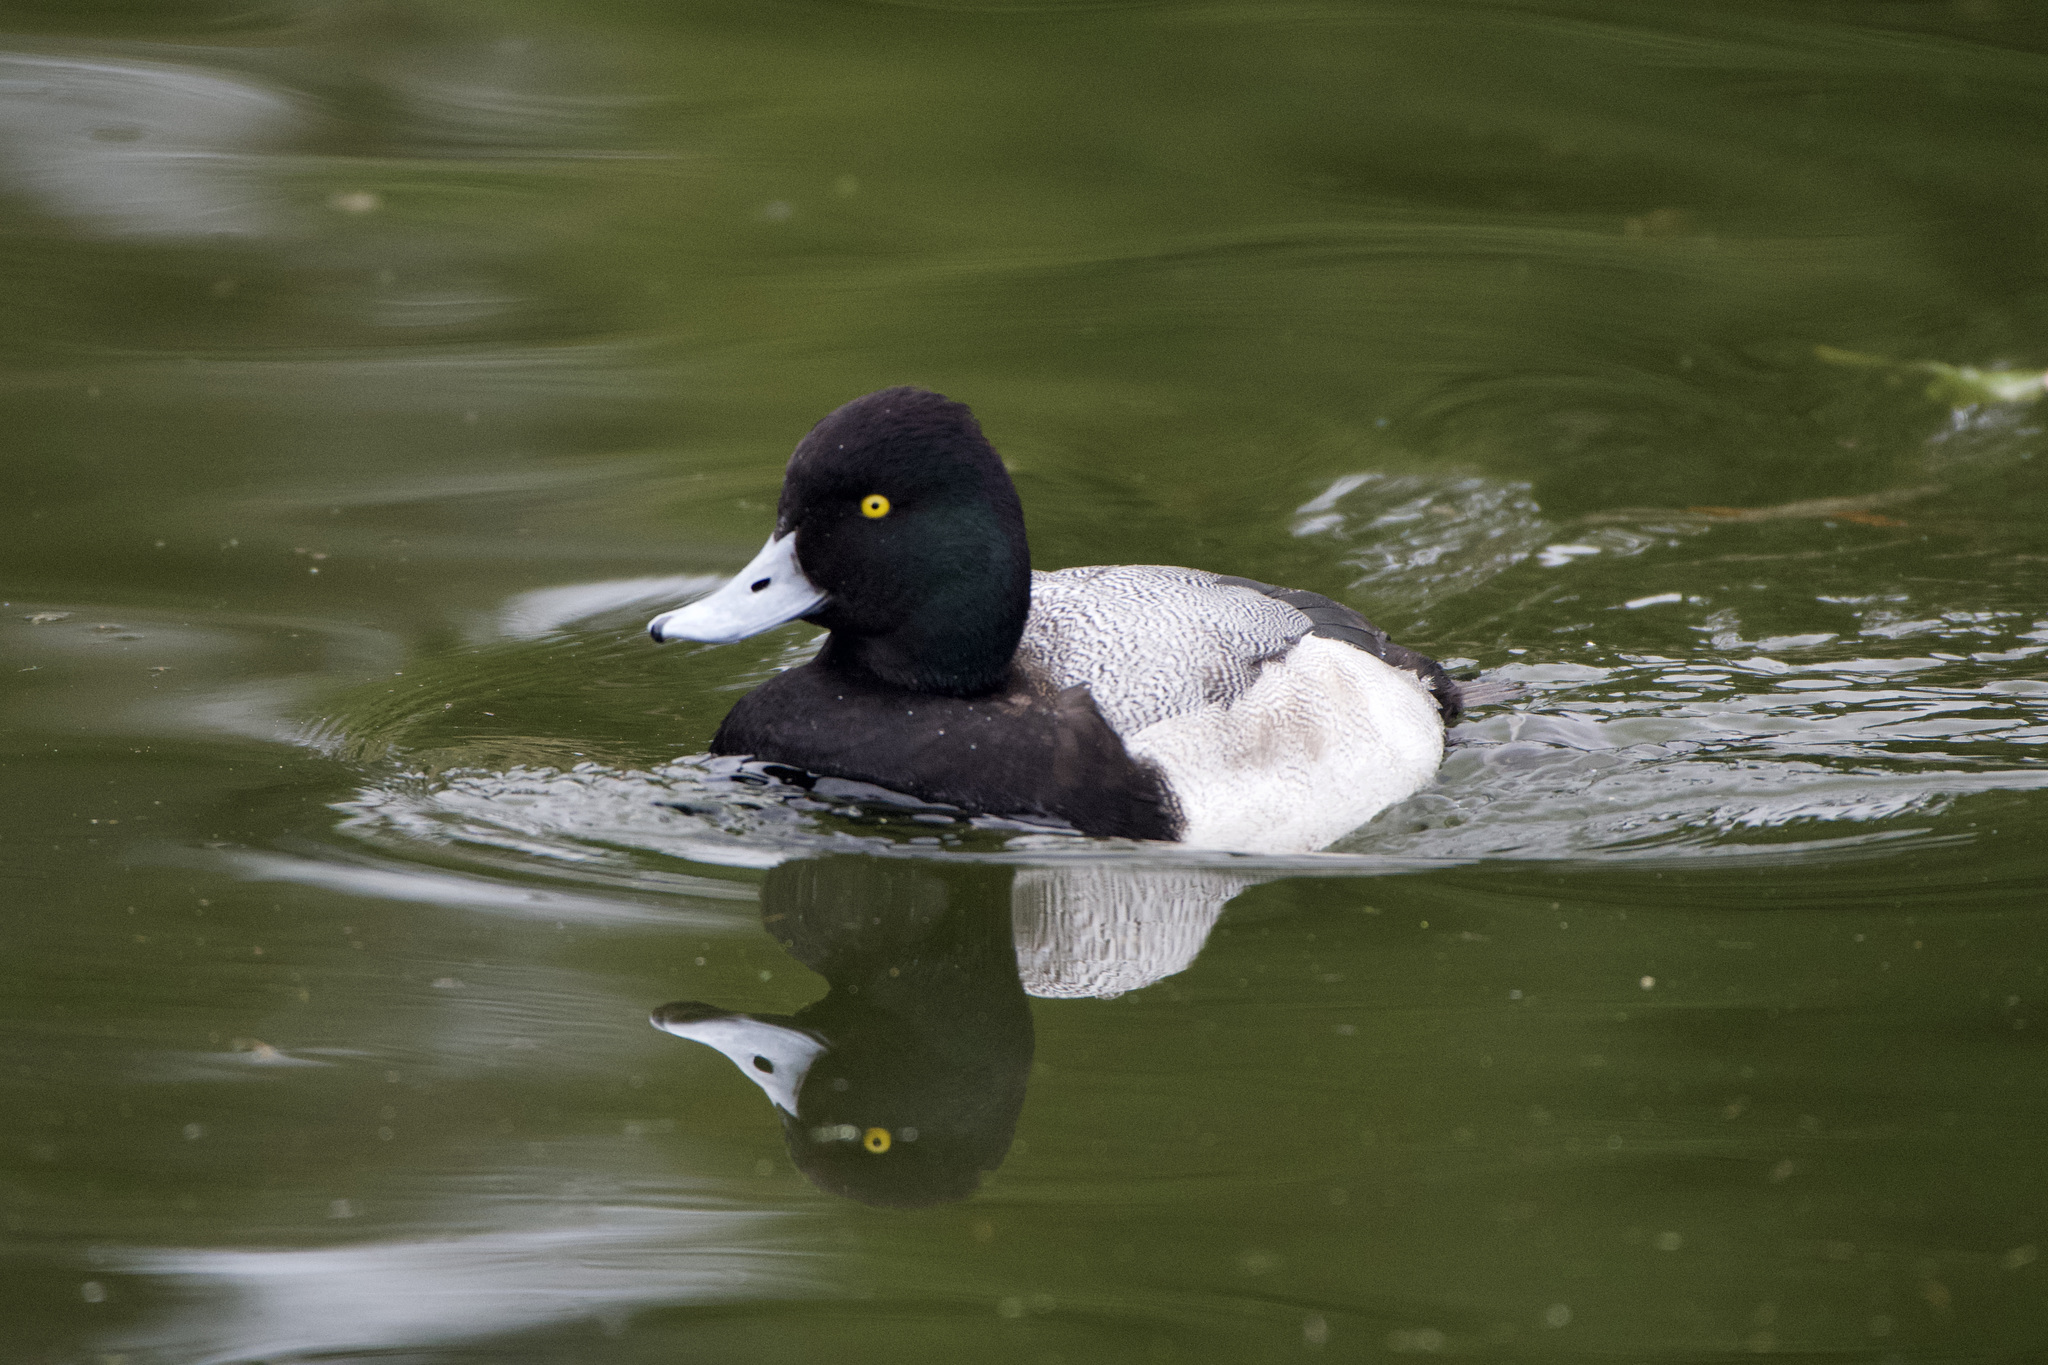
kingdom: Animalia
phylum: Chordata
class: Aves
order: Anseriformes
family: Anatidae
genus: Aythya
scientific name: Aythya affinis
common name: Lesser scaup
